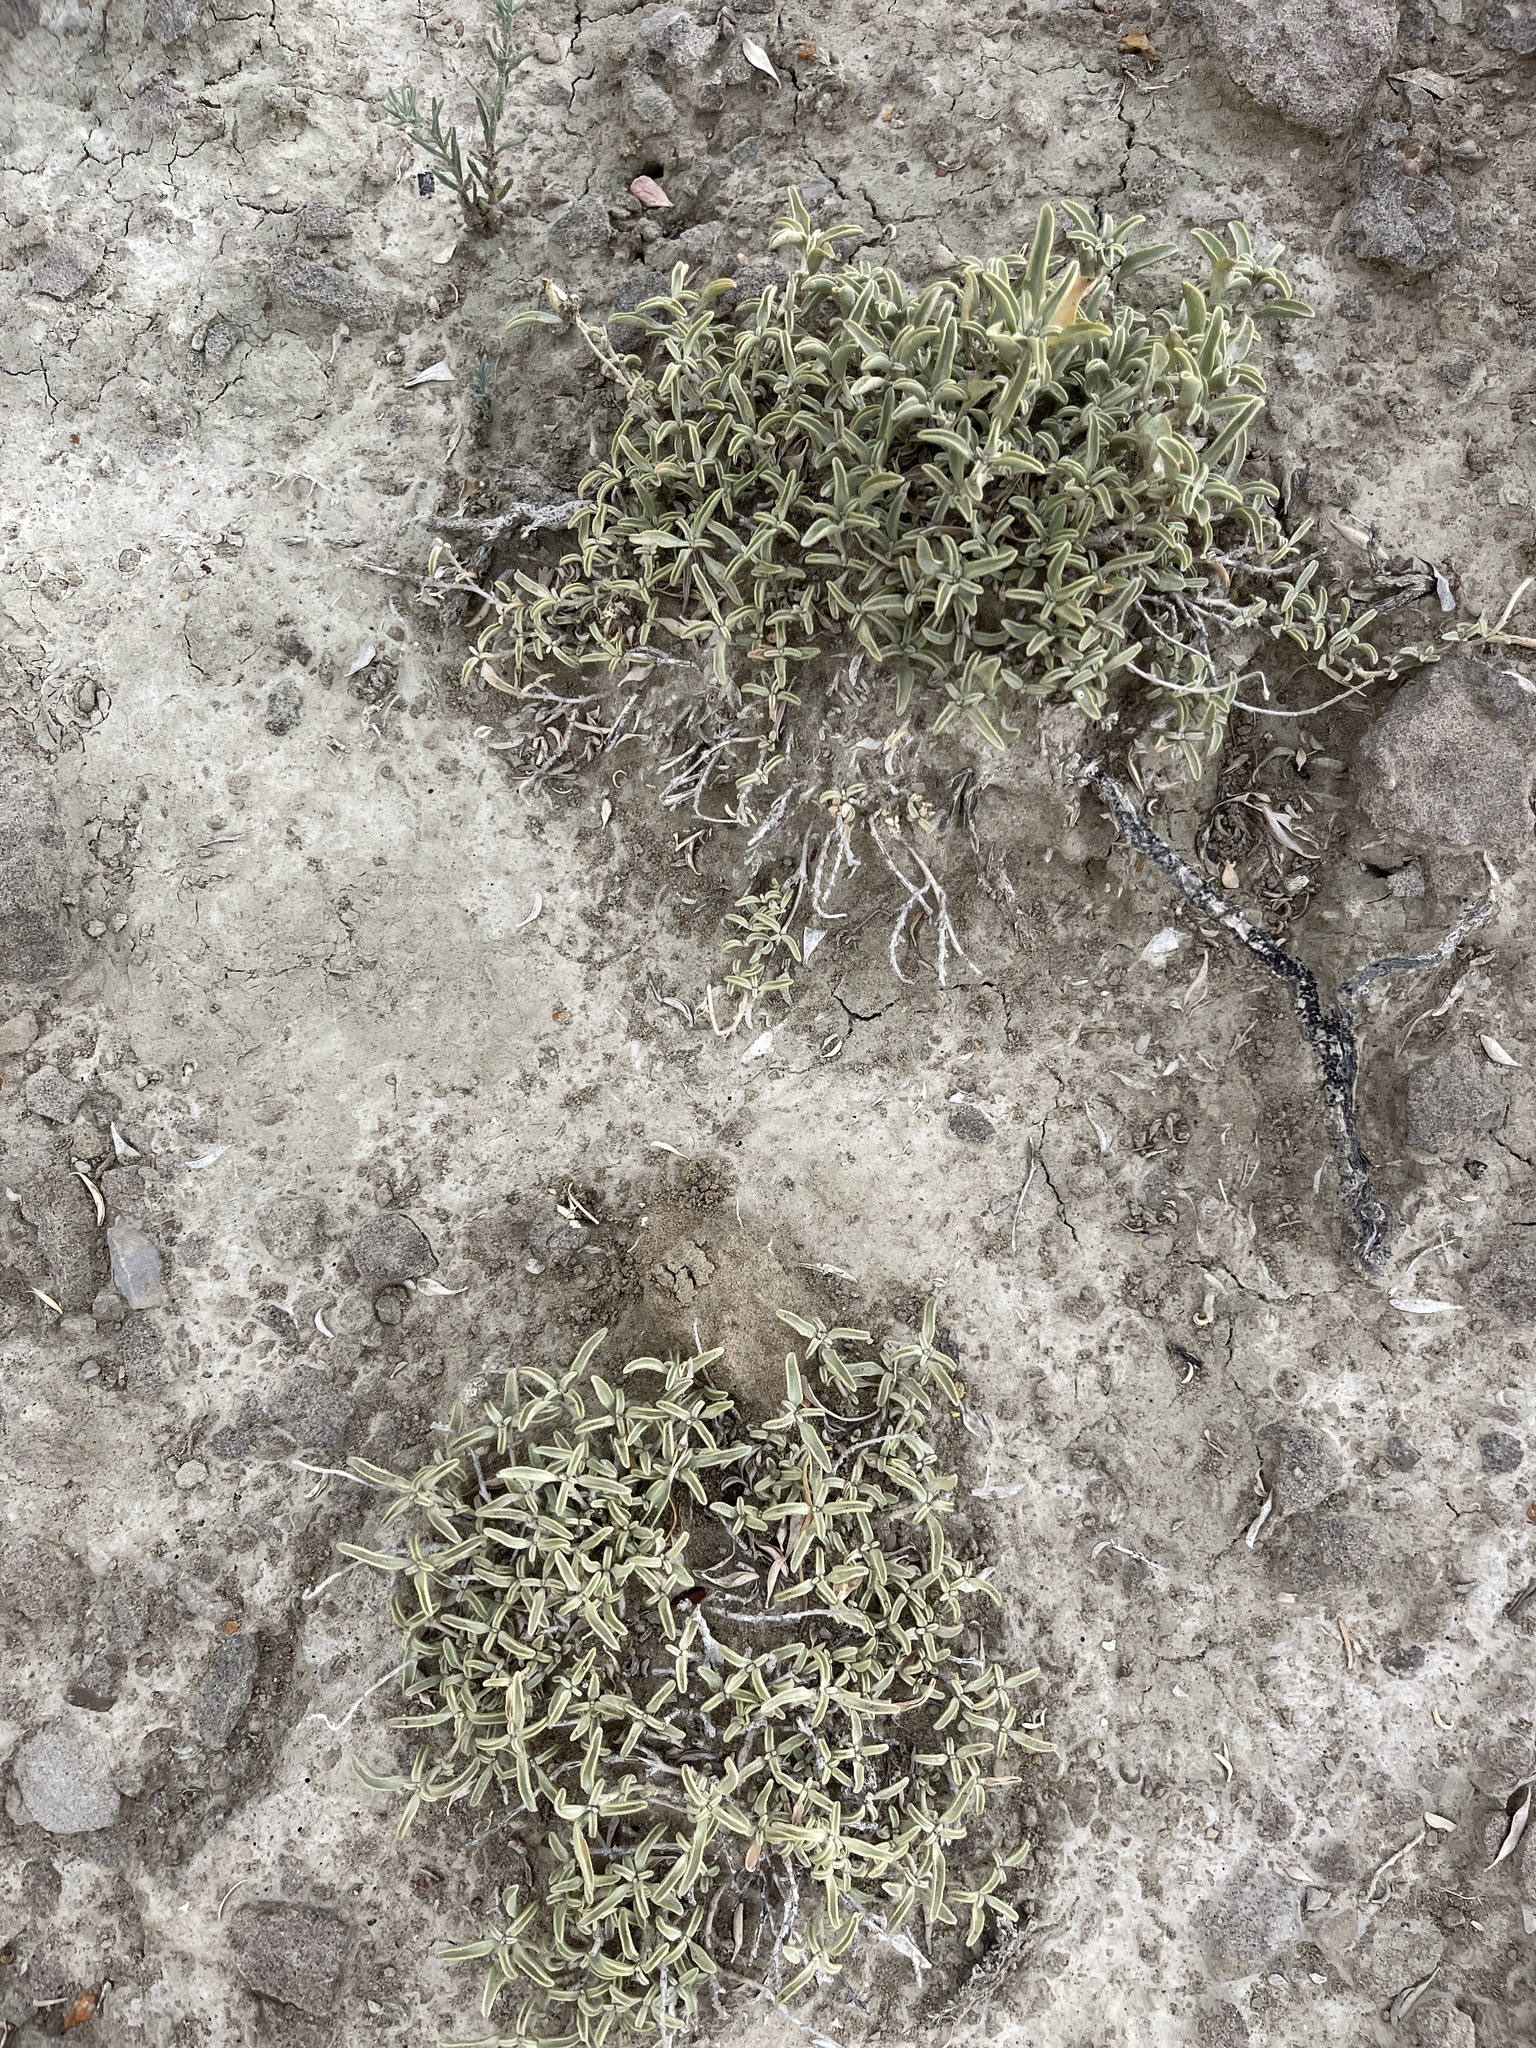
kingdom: Plantae
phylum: Tracheophyta
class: Magnoliopsida
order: Caryophyllales
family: Amaranthaceae
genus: Atriplex
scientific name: Atriplex gardneri
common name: Gardner's orache
